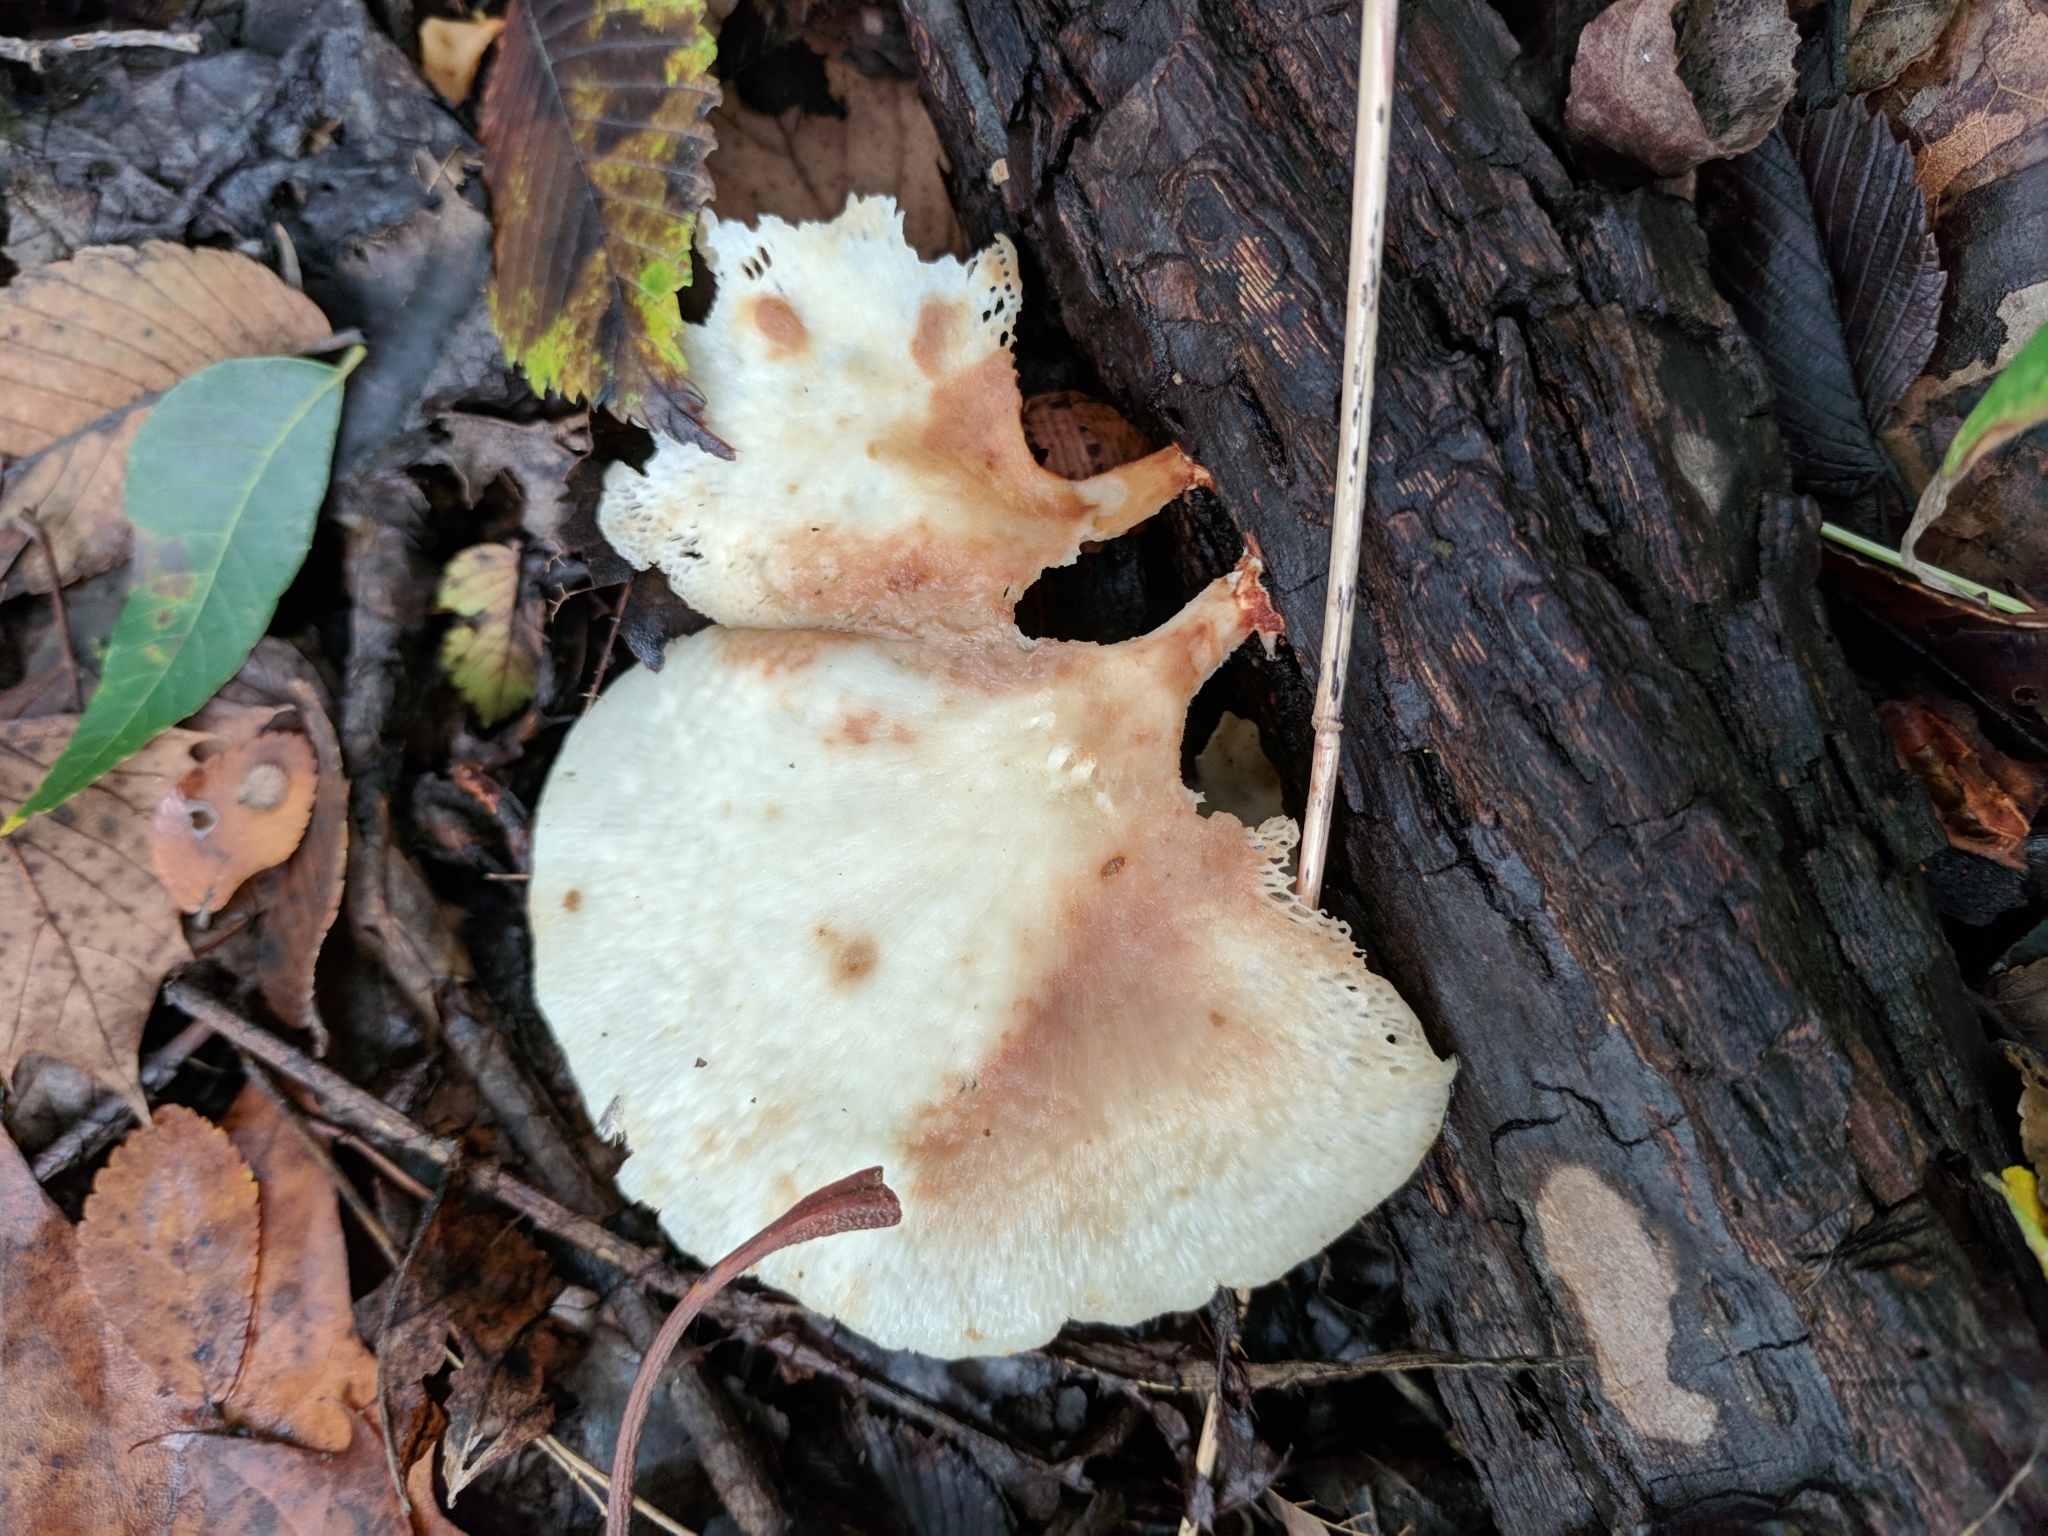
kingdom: Fungi
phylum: Basidiomycota
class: Agaricomycetes
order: Polyporales
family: Polyporaceae
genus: Favolus
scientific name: Favolus tenuiculus
